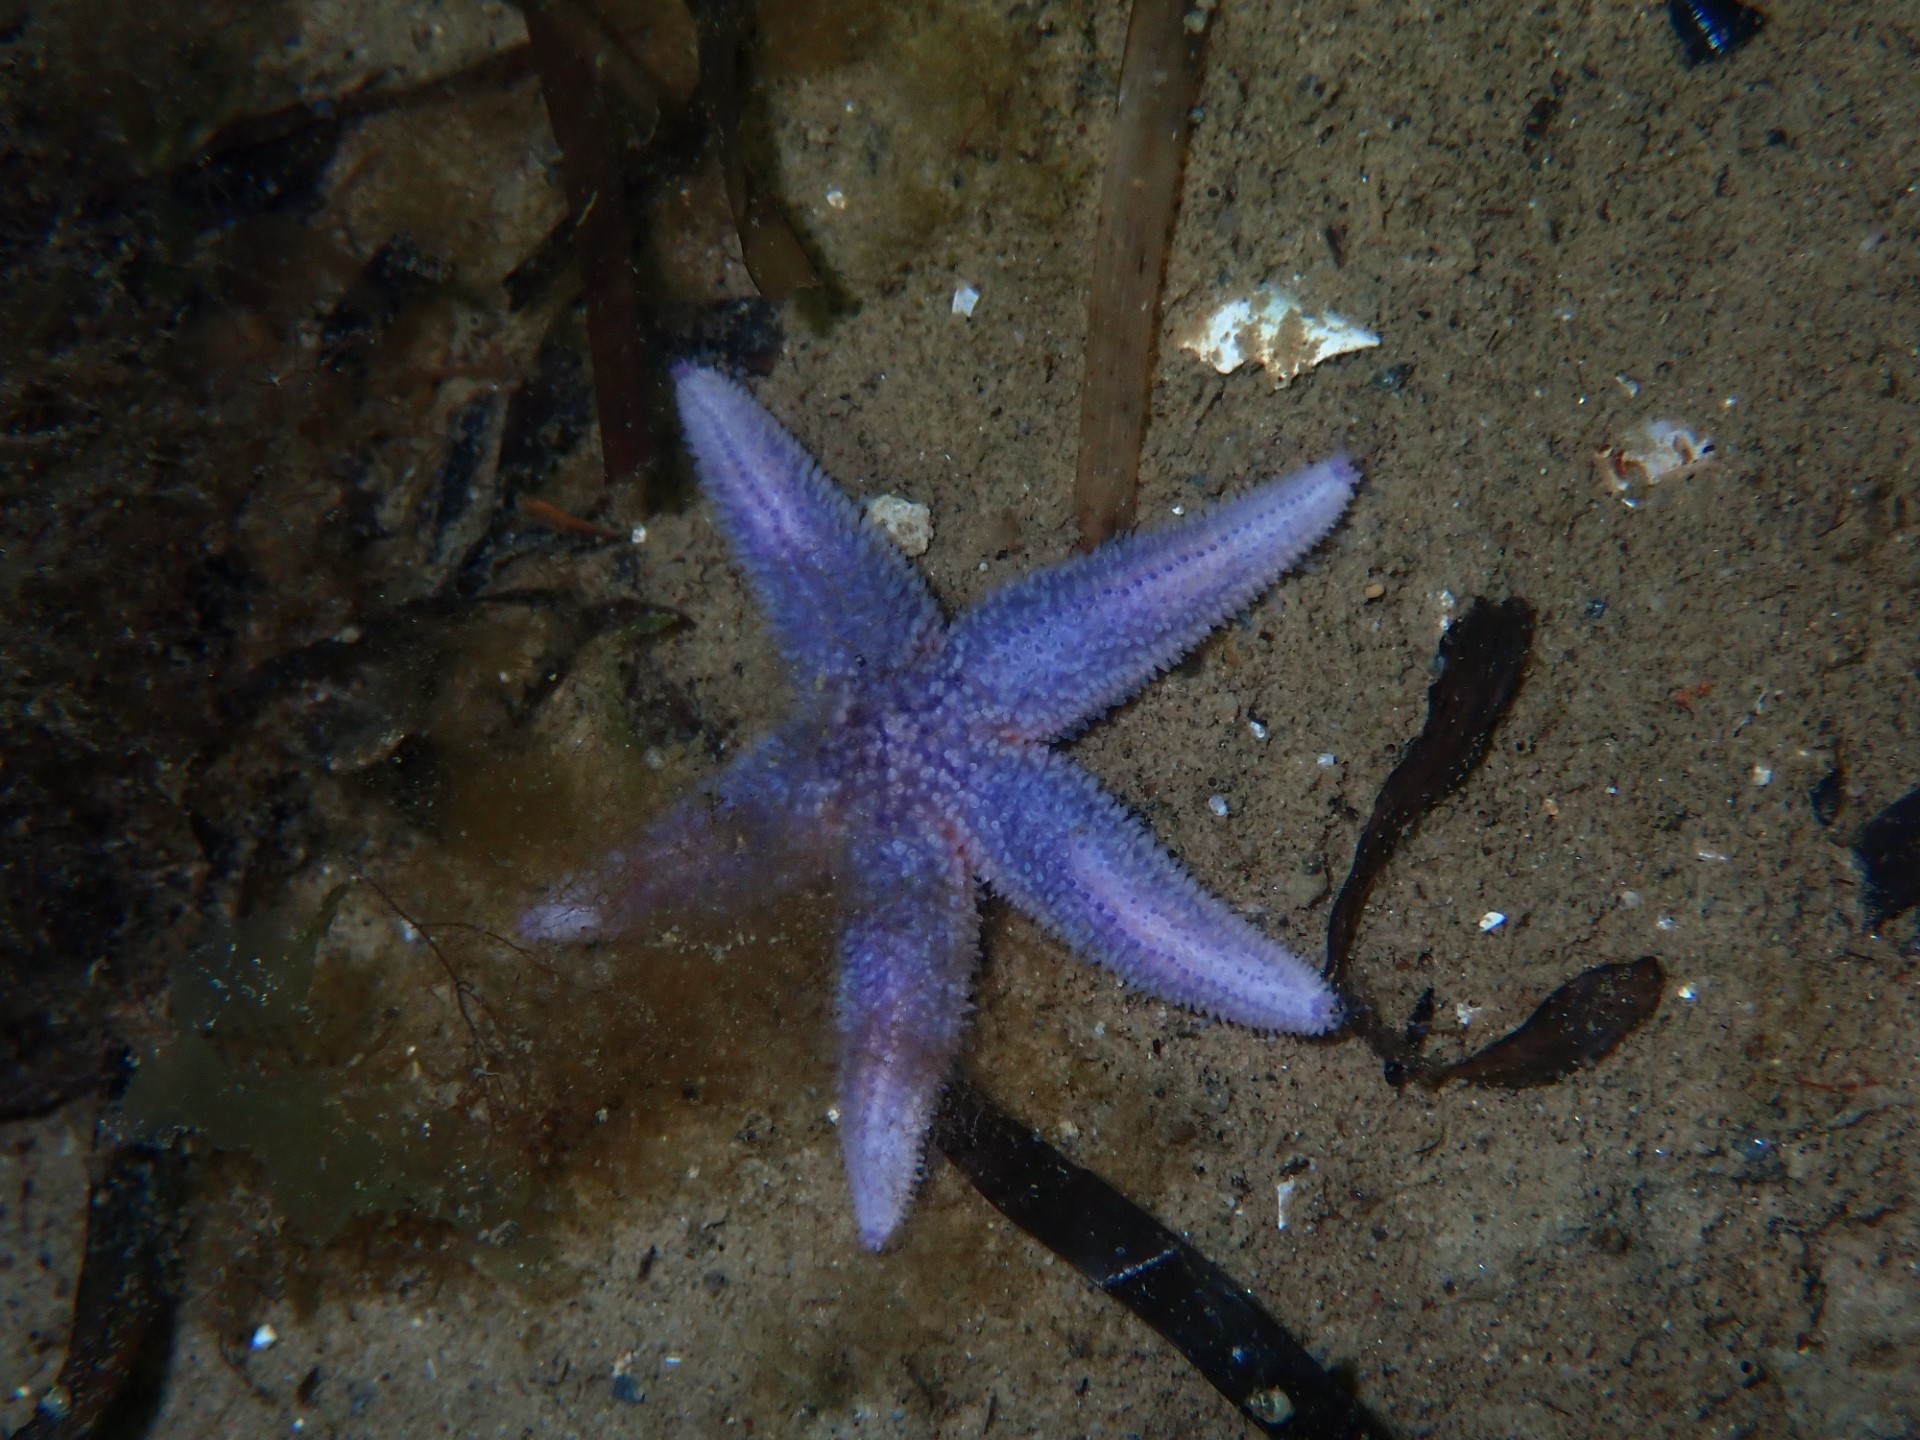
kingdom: Animalia
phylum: Echinodermata
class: Asteroidea
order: Forcipulatida
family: Asteriidae
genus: Asterias
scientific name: Asterias rubens
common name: Common starfish
